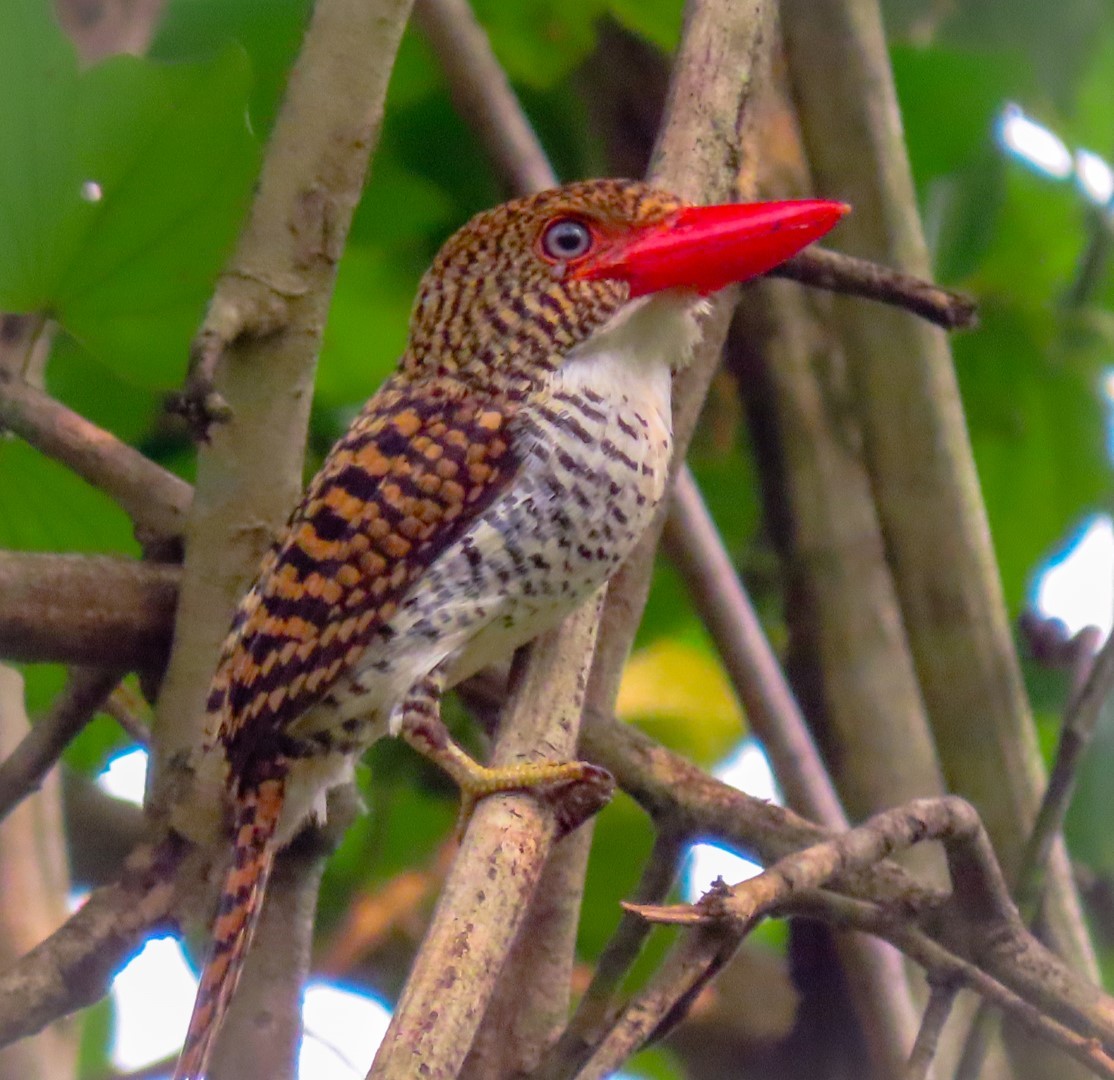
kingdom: Animalia
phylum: Chordata
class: Aves
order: Coraciiformes
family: Alcedinidae
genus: Lacedo
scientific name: Lacedo pulchella
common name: Banded kingfisher
